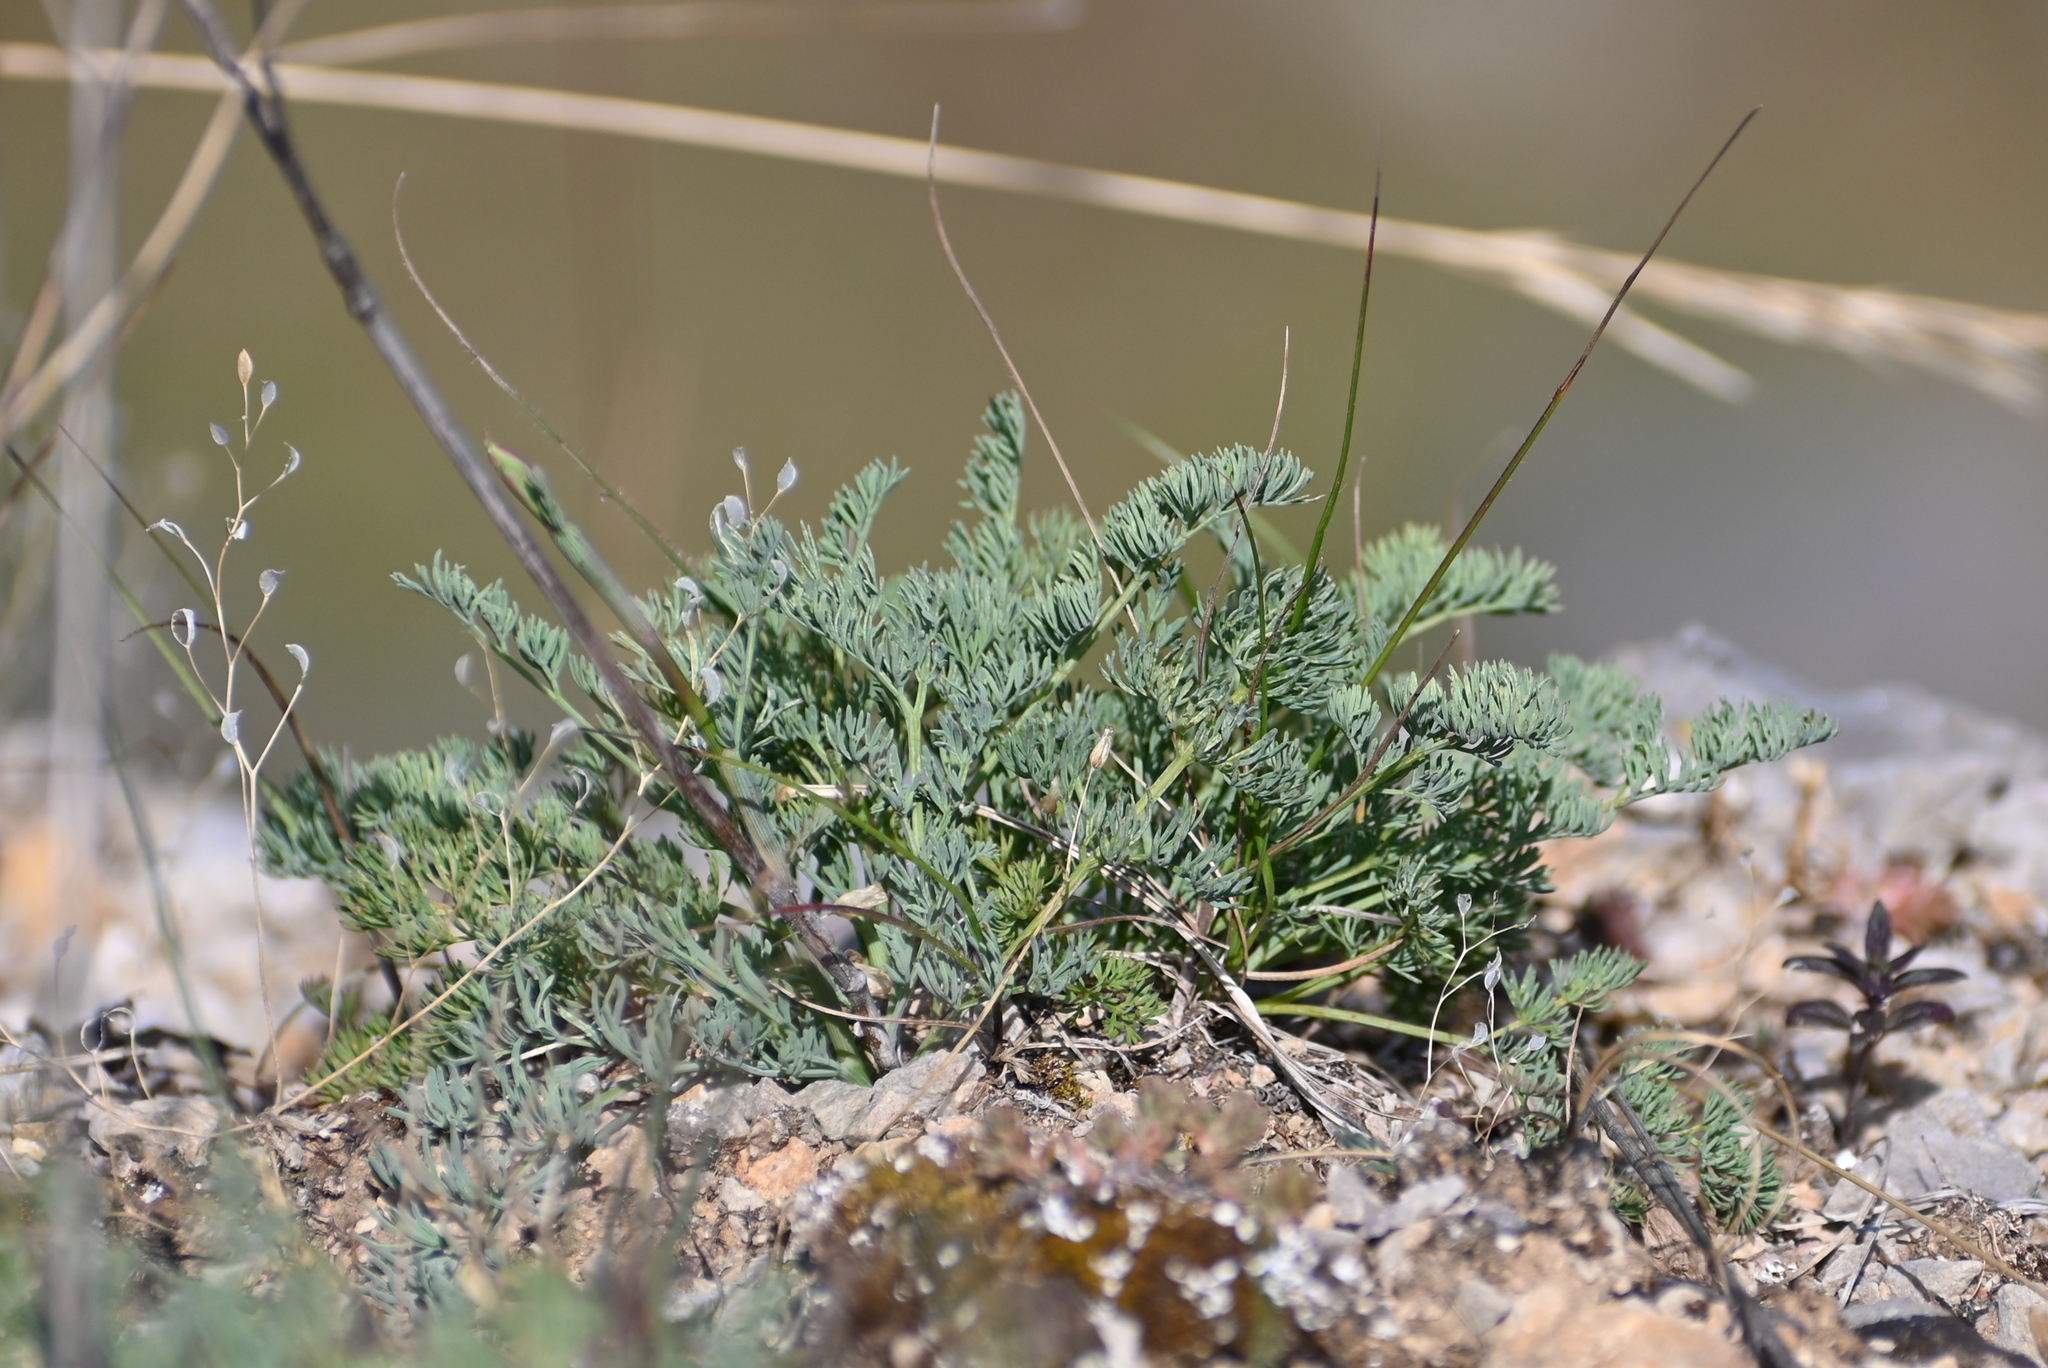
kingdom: Plantae
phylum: Tracheophyta
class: Magnoliopsida
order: Apiales
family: Apiaceae
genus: Hippomarathrum
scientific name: Hippomarathrum
